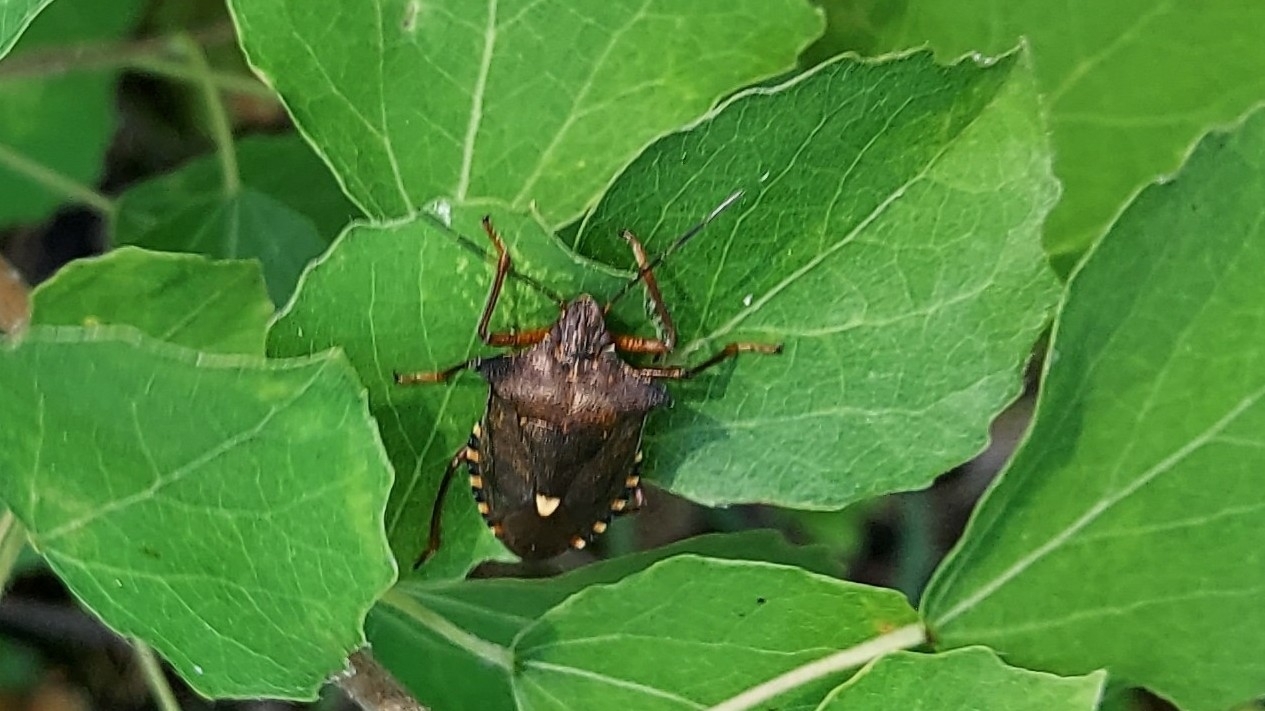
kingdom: Animalia
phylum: Arthropoda
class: Insecta
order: Hemiptera
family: Pentatomidae
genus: Pentatoma
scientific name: Pentatoma rufipes
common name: Forest bug
